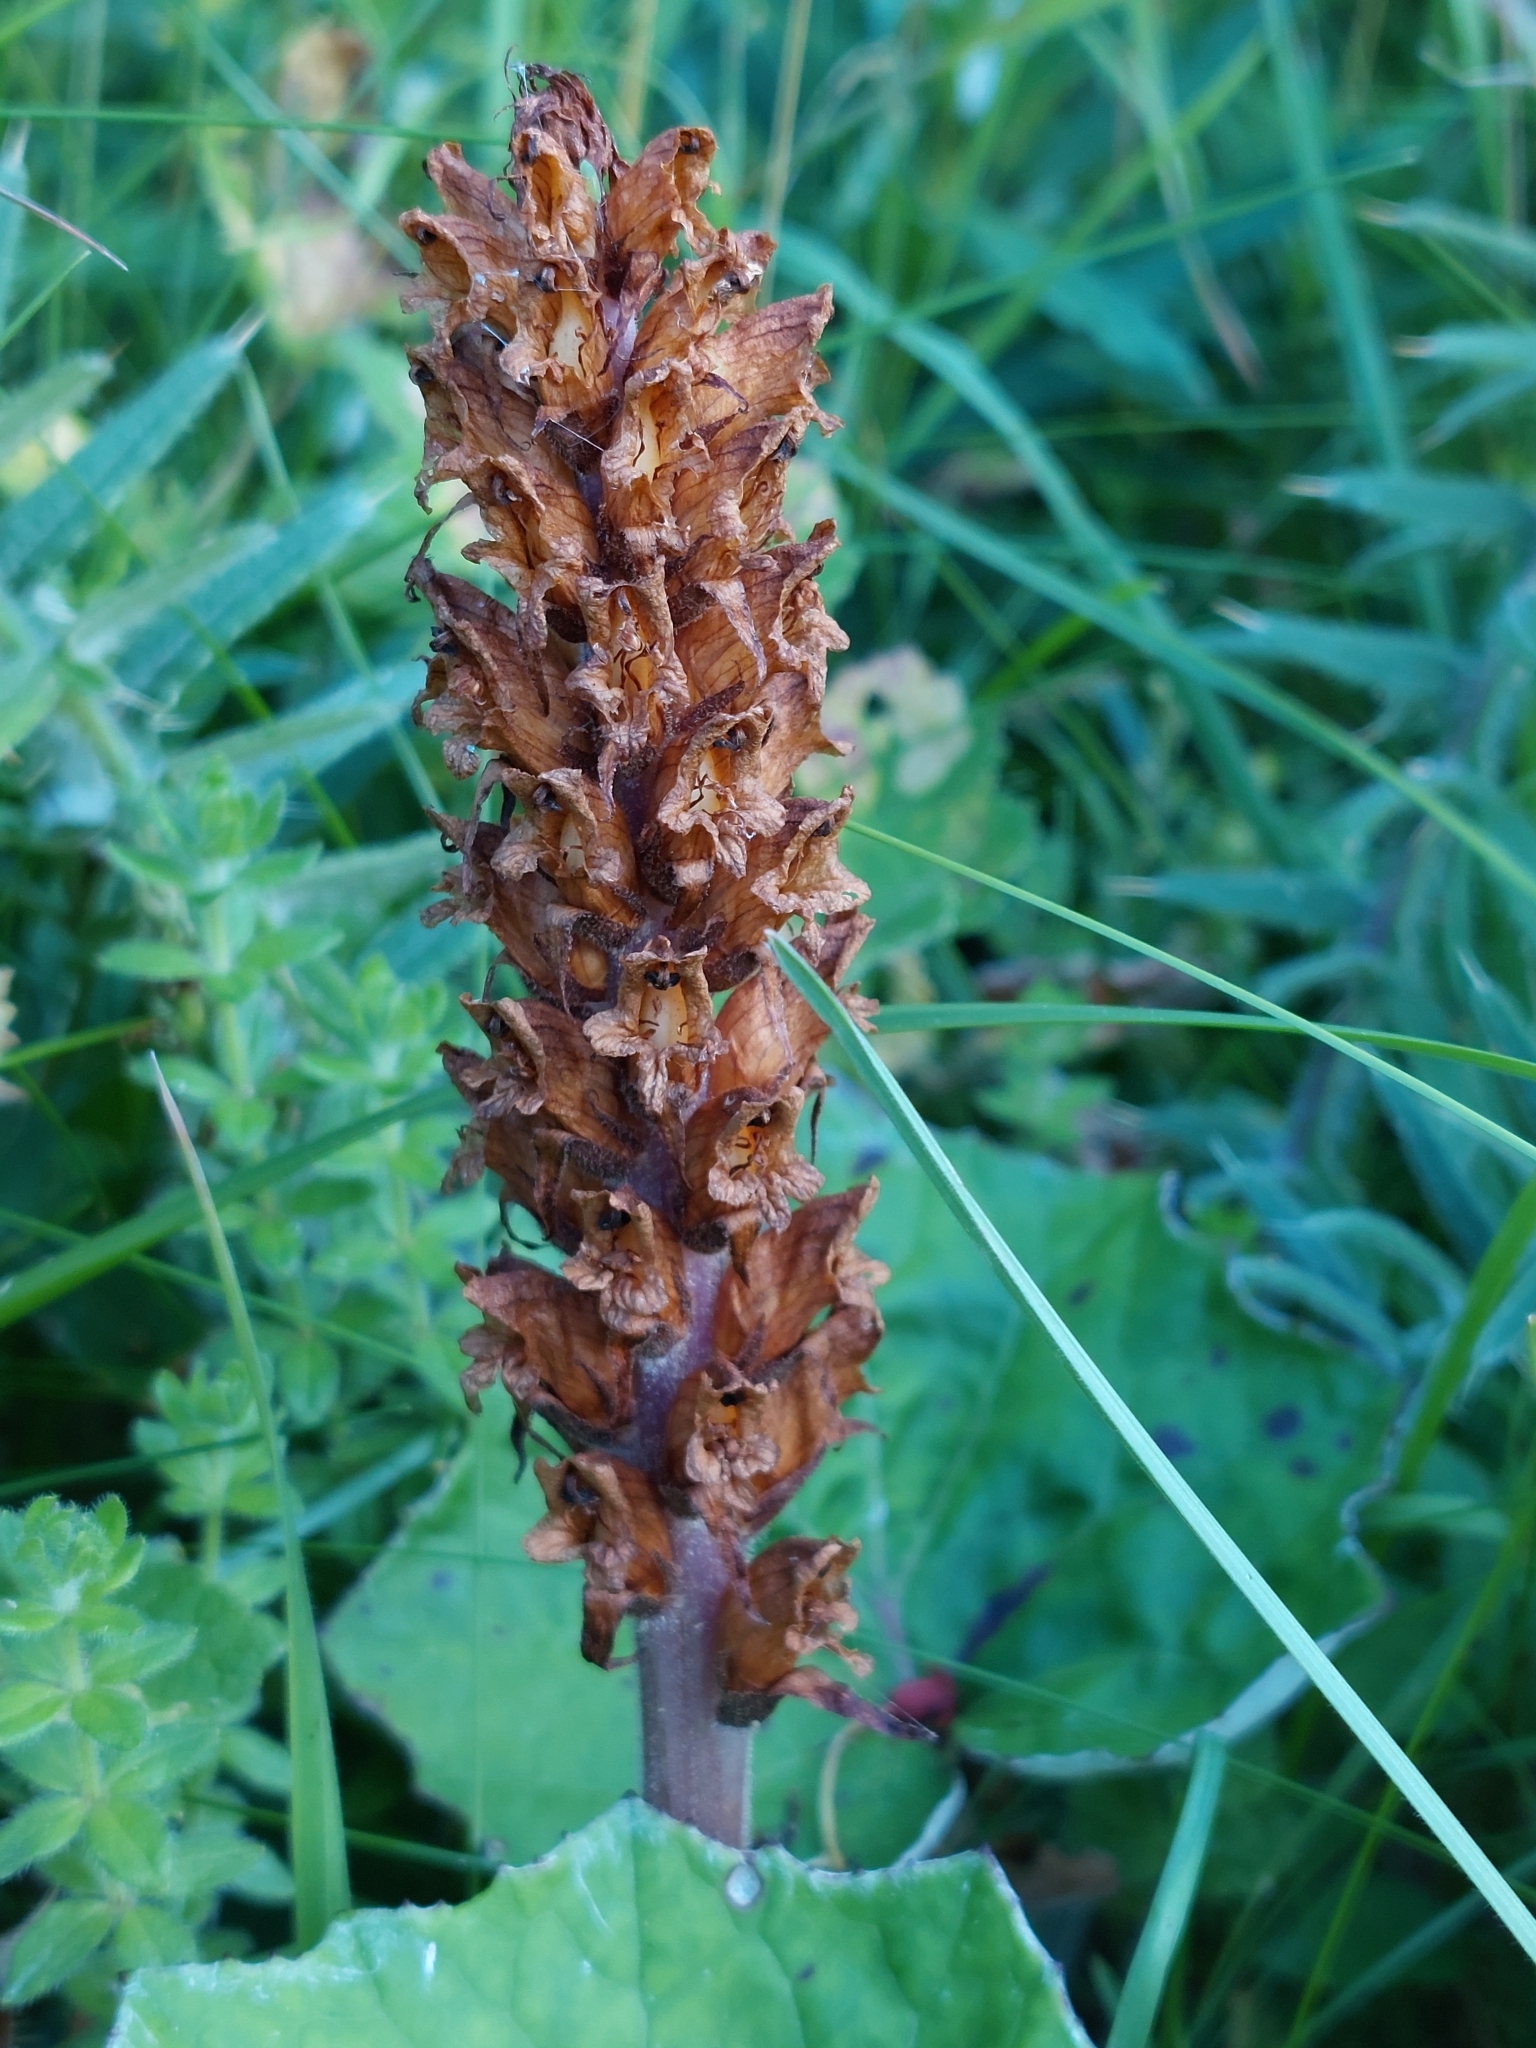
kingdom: Plantae
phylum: Tracheophyta
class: Magnoliopsida
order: Lamiales
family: Orobanchaceae
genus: Orobanche
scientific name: Orobanche reticulata
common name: Thistle broomrape
